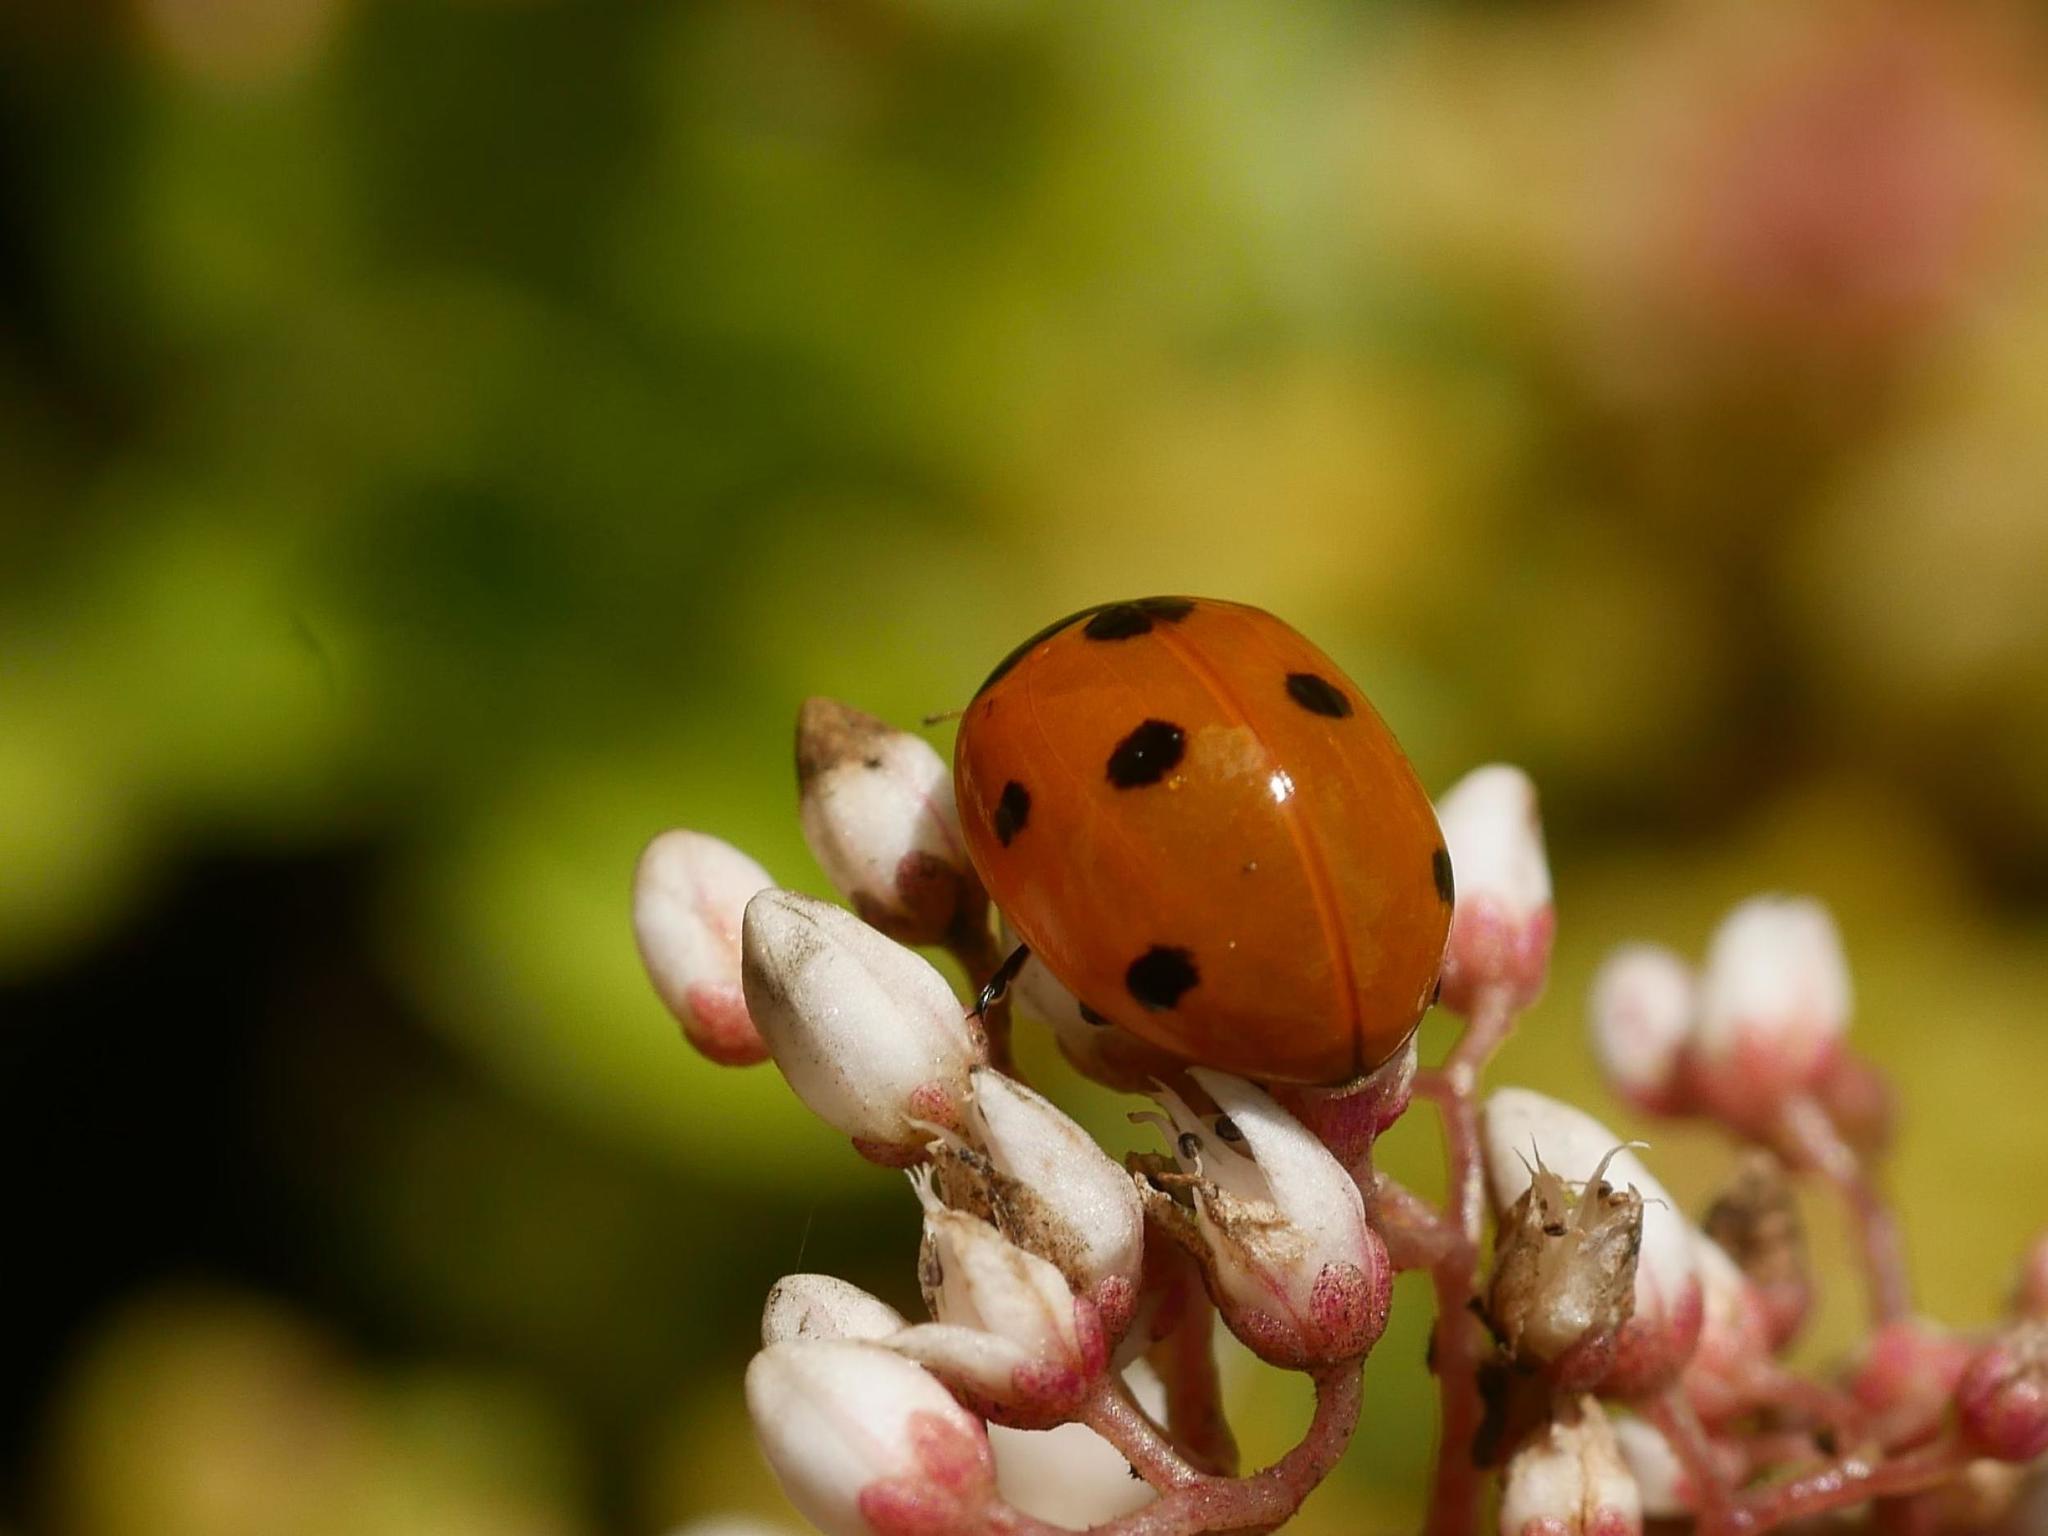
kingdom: Animalia
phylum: Arthropoda
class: Insecta
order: Coleoptera
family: Coccinellidae
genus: Coccinella
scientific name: Coccinella septempunctata
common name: Sevenspotted lady beetle
